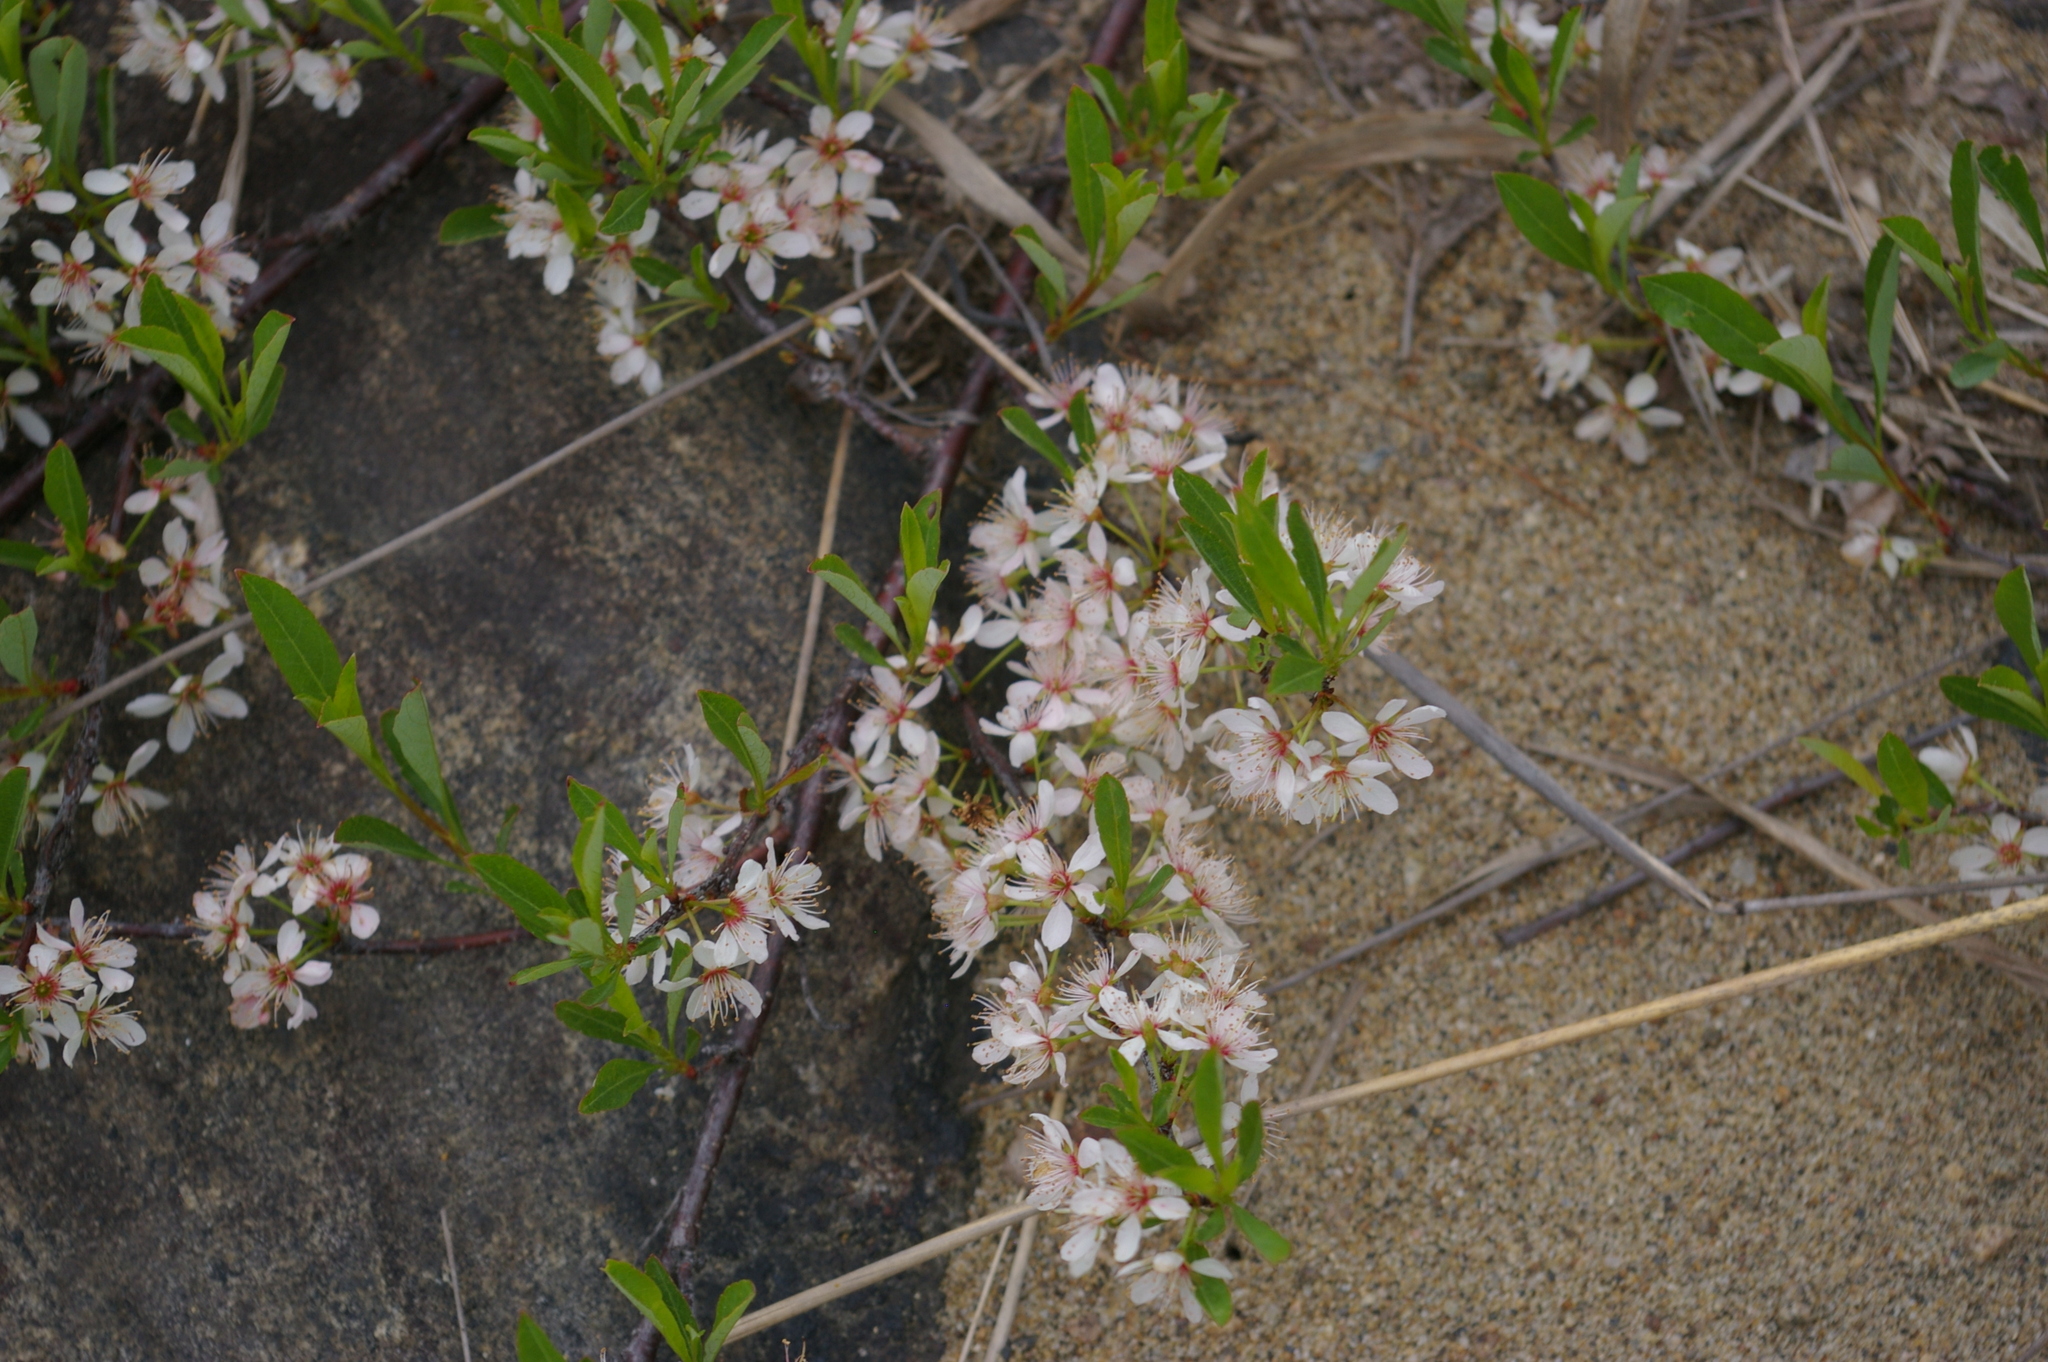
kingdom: Plantae
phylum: Tracheophyta
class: Magnoliopsida
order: Rosales
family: Rosaceae
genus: Prunus
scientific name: Prunus pumila
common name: Dwarf cherry
